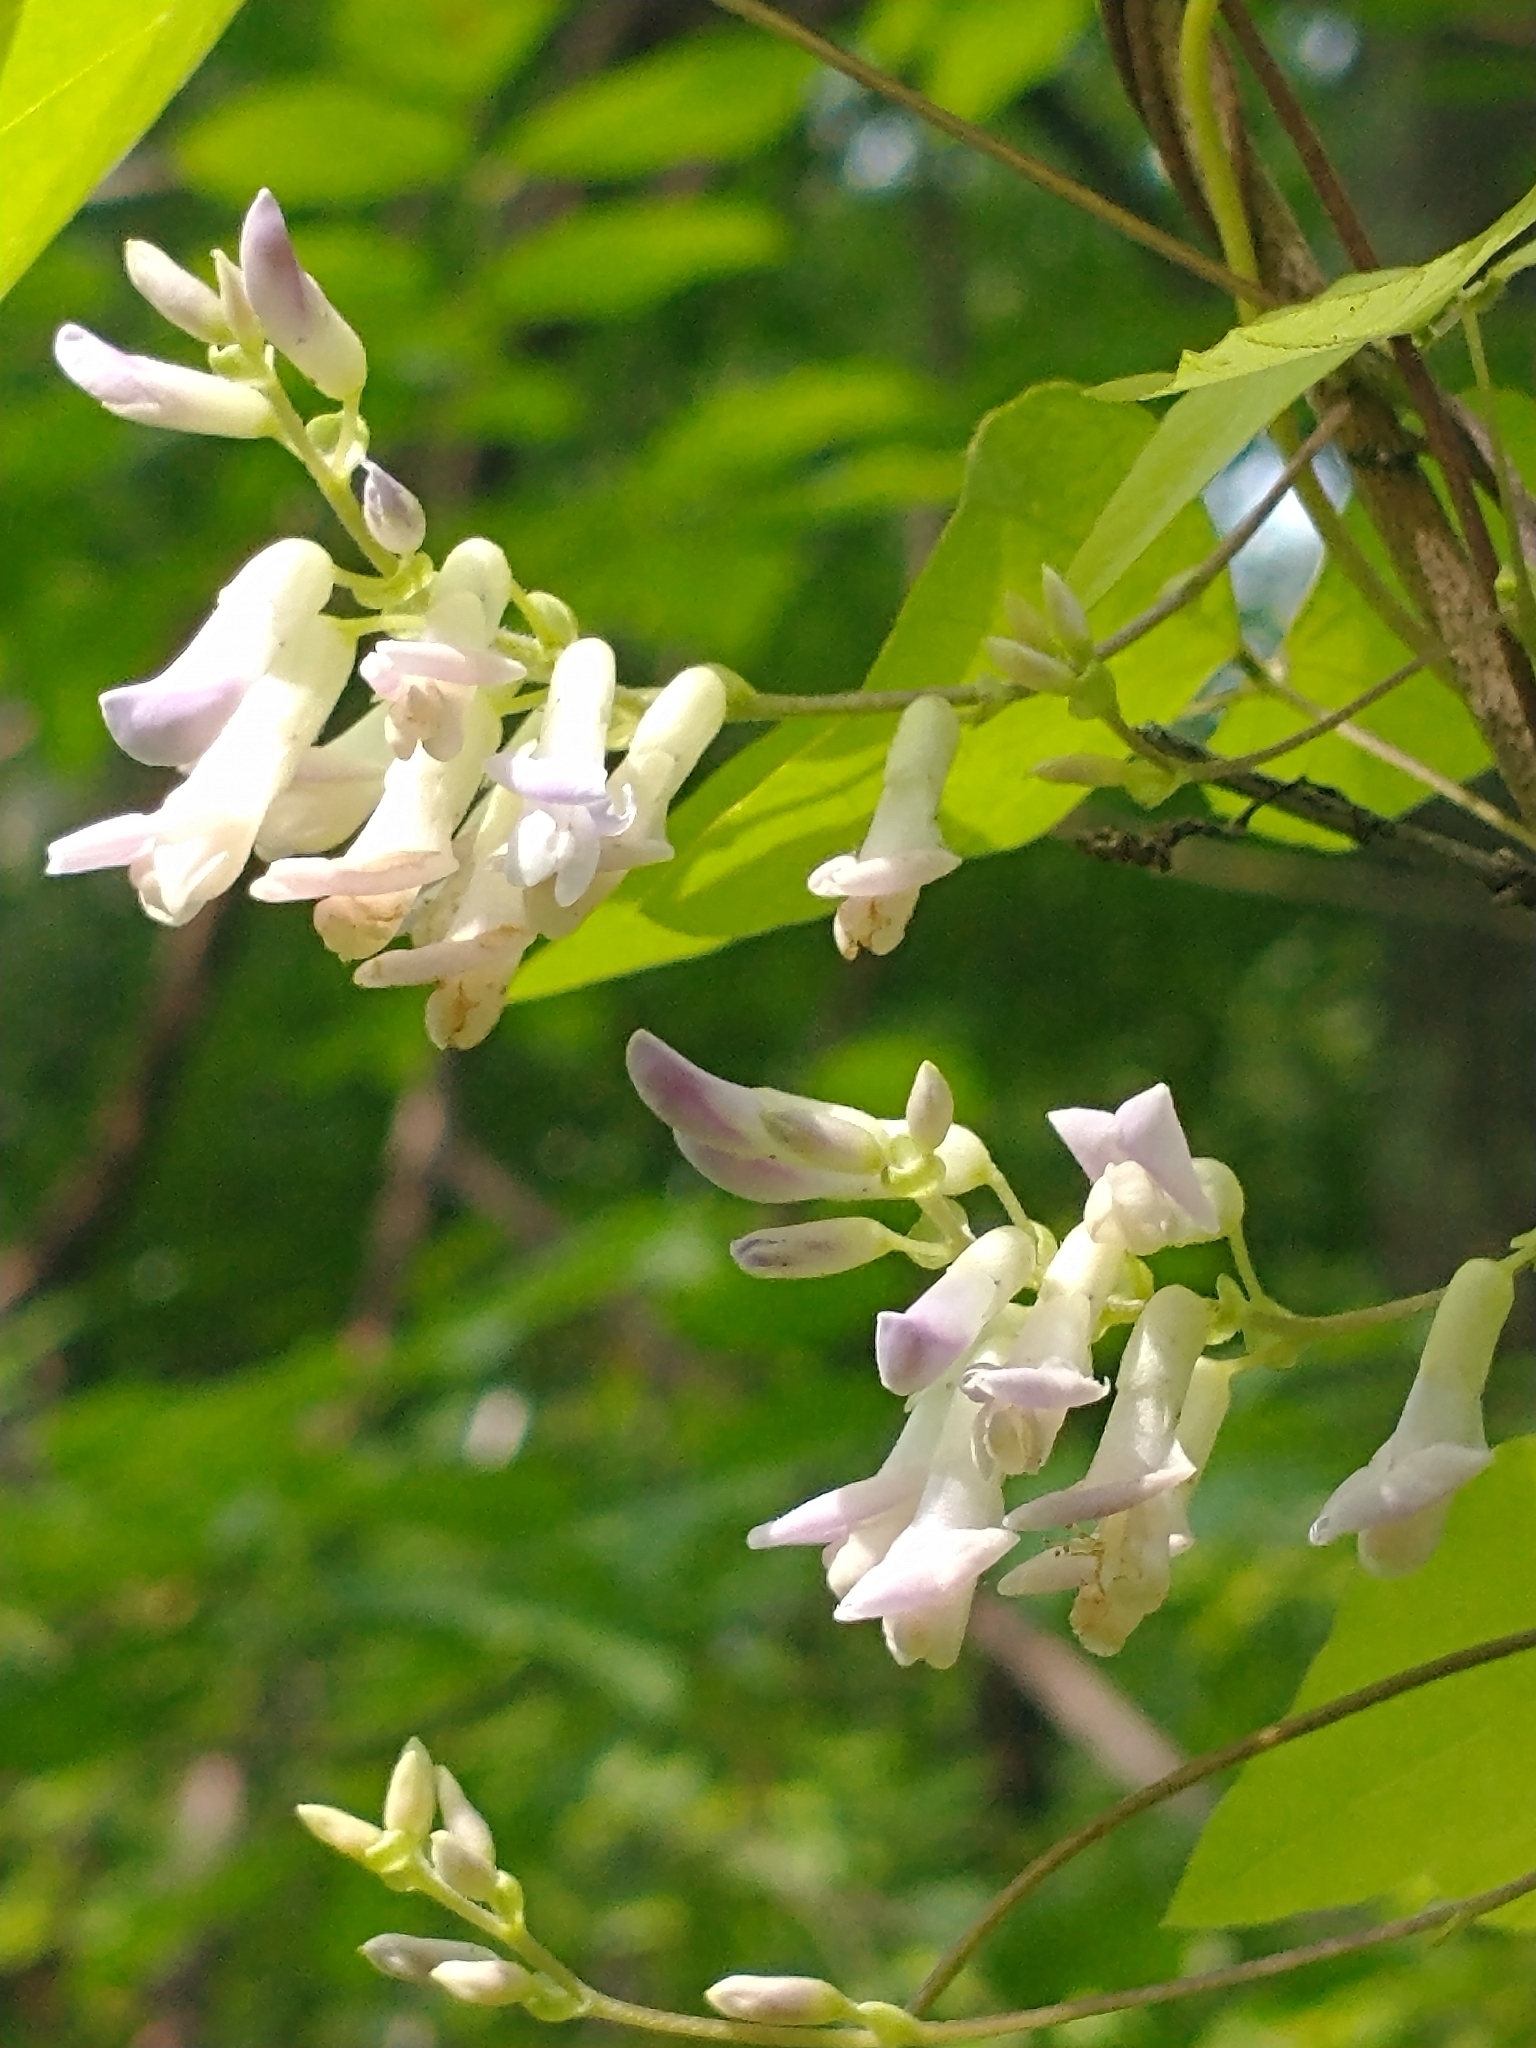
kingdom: Plantae
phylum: Tracheophyta
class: Magnoliopsida
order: Fabales
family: Fabaceae
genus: Amphicarpaea
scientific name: Amphicarpaea bracteata
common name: American hog peanut
